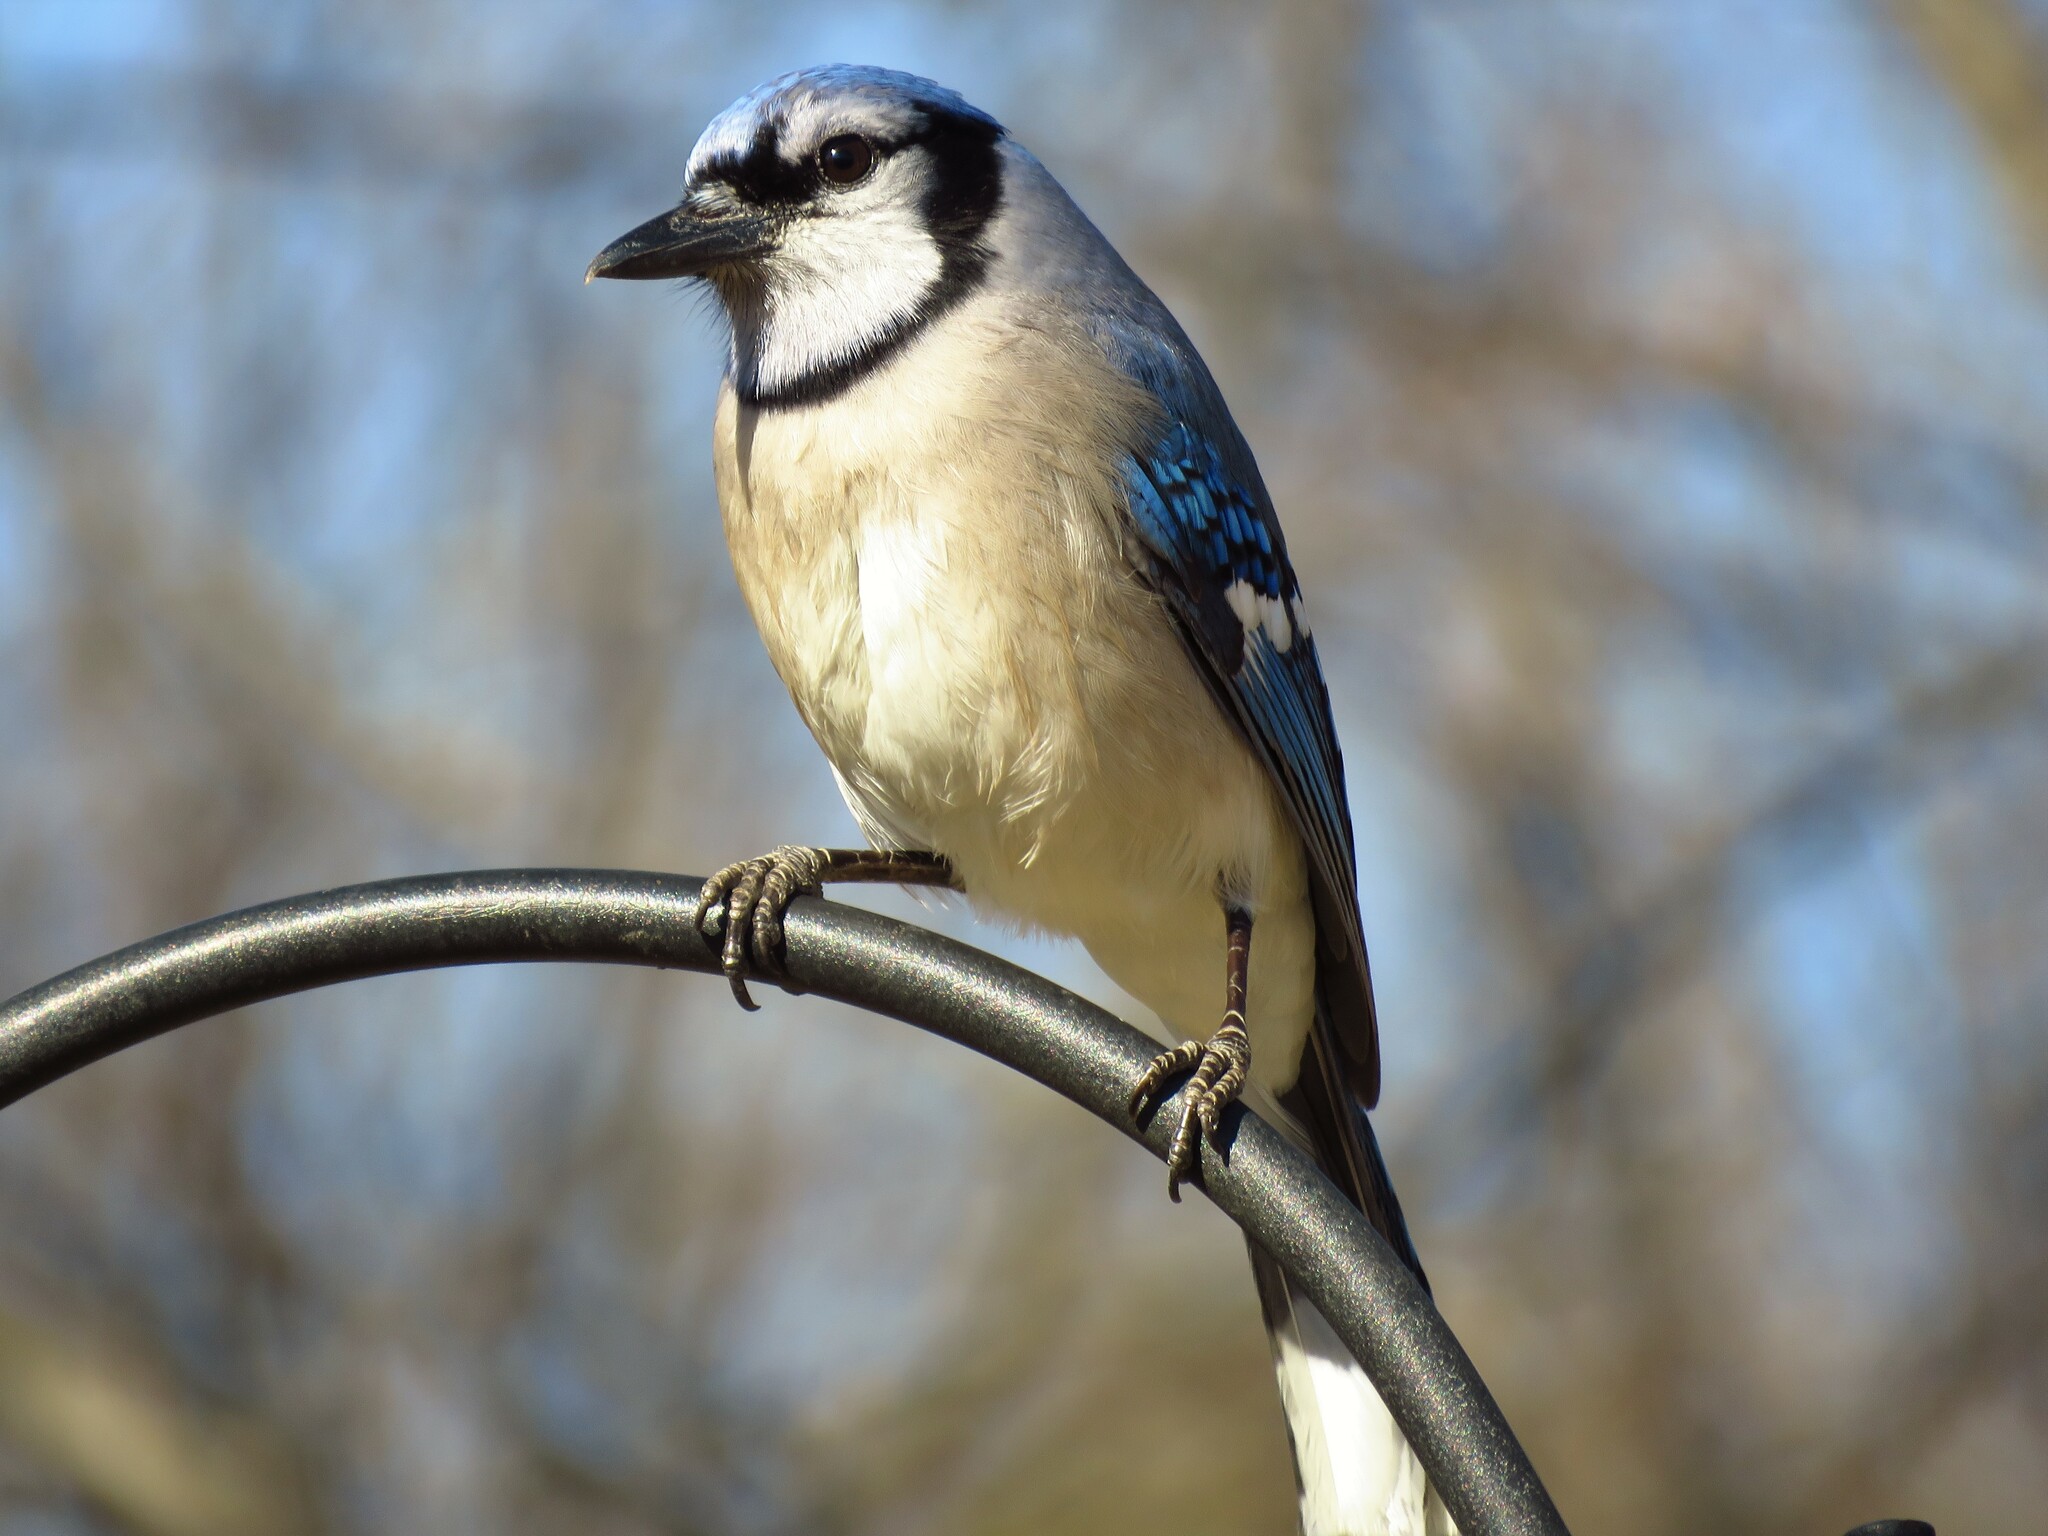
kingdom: Animalia
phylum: Chordata
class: Aves
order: Passeriformes
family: Corvidae
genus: Cyanocitta
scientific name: Cyanocitta cristata
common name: Blue jay
